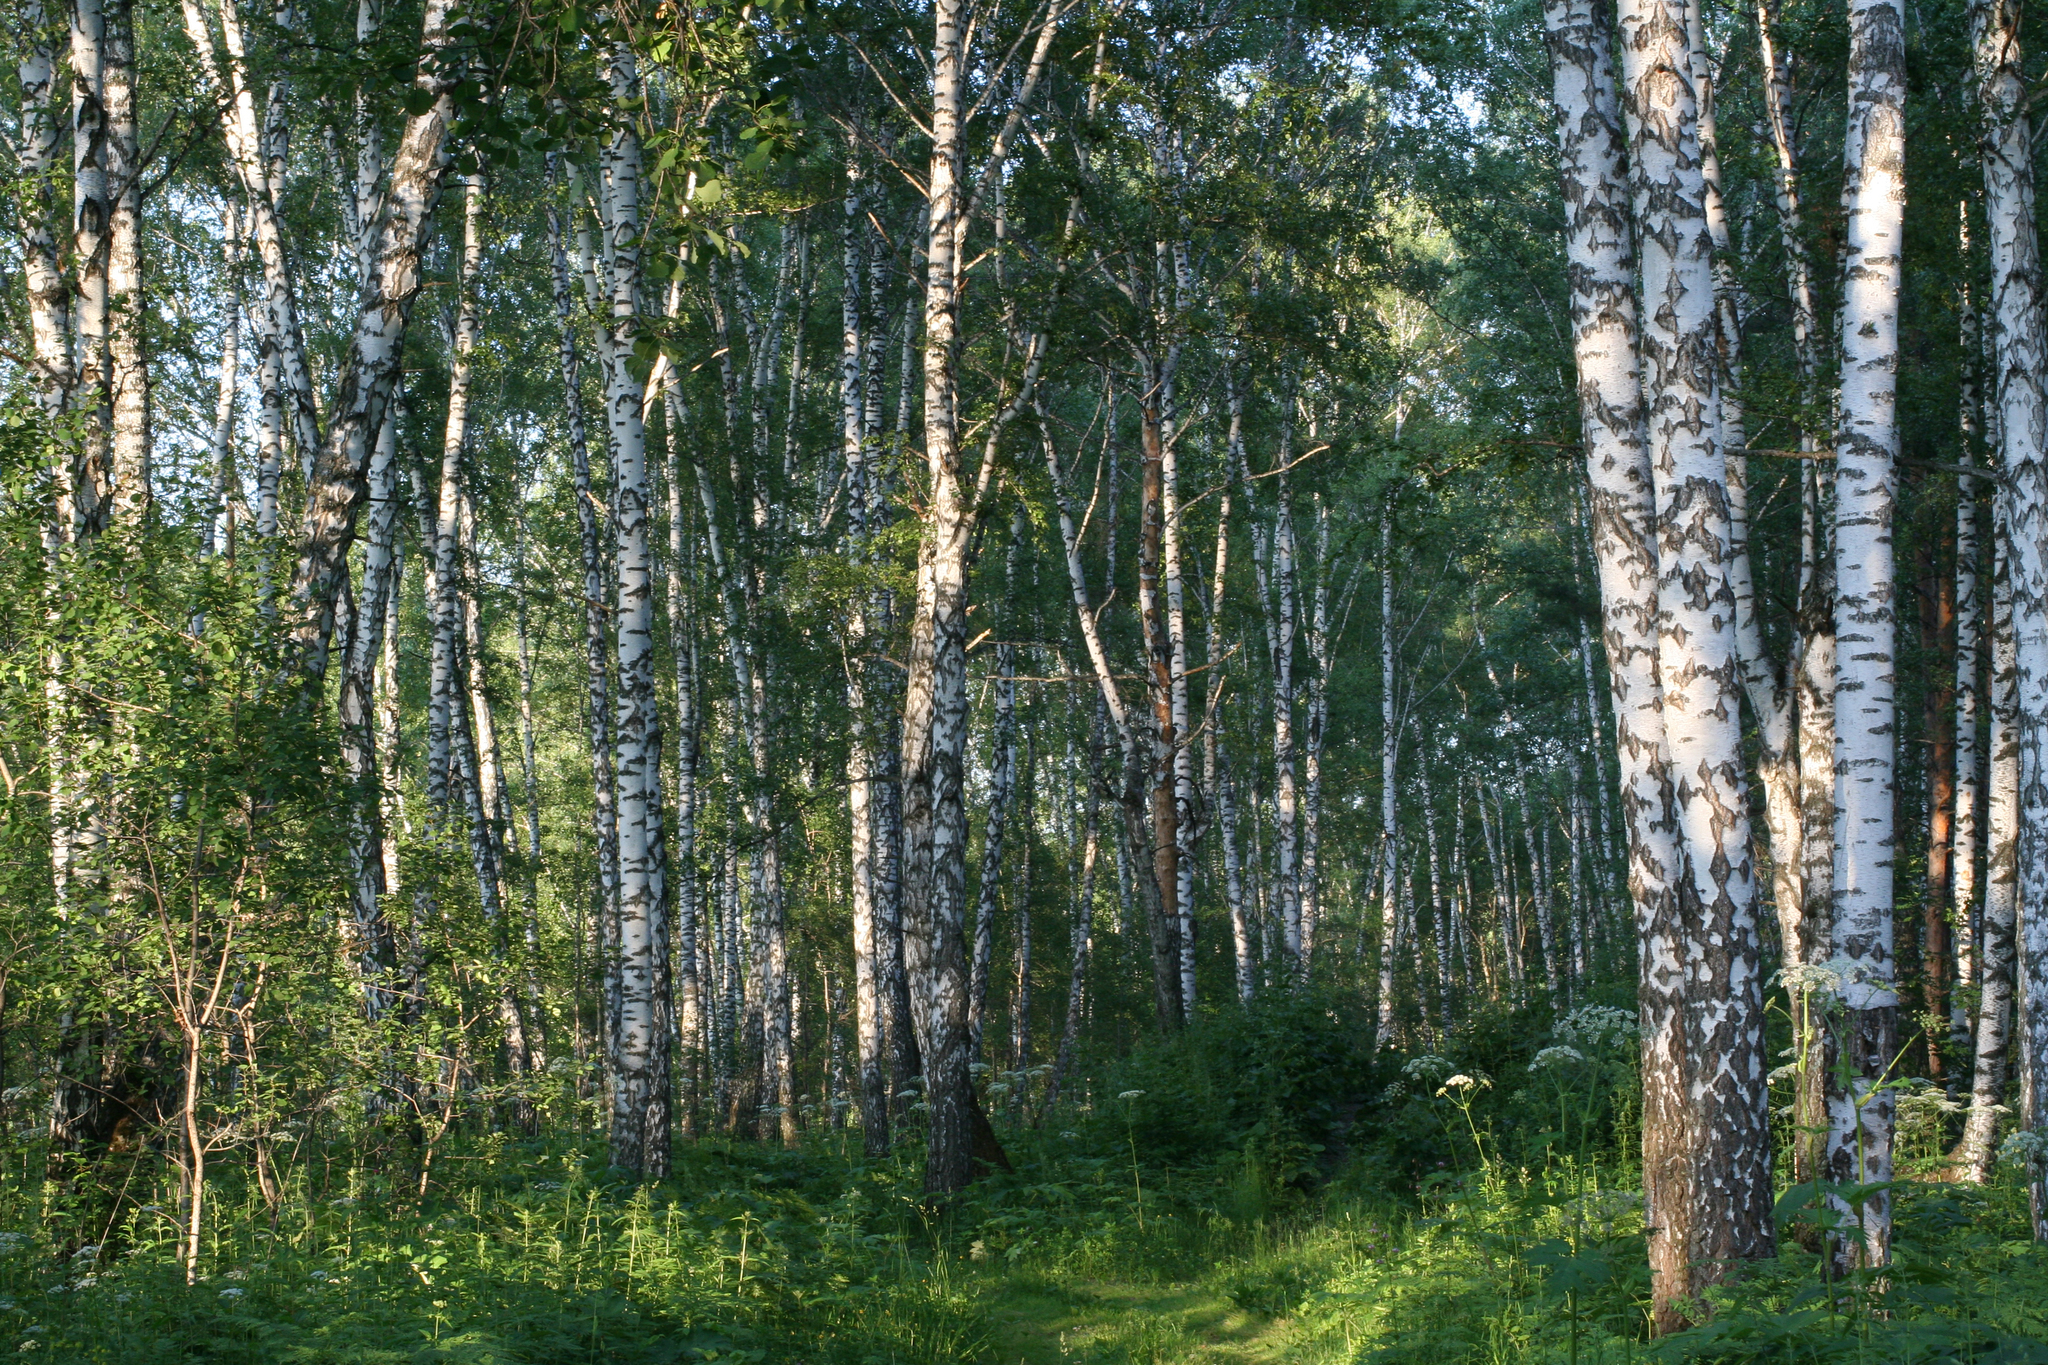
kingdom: Plantae
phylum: Tracheophyta
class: Magnoliopsida
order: Fagales
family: Betulaceae
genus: Betula
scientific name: Betula pendula
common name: Silver birch
